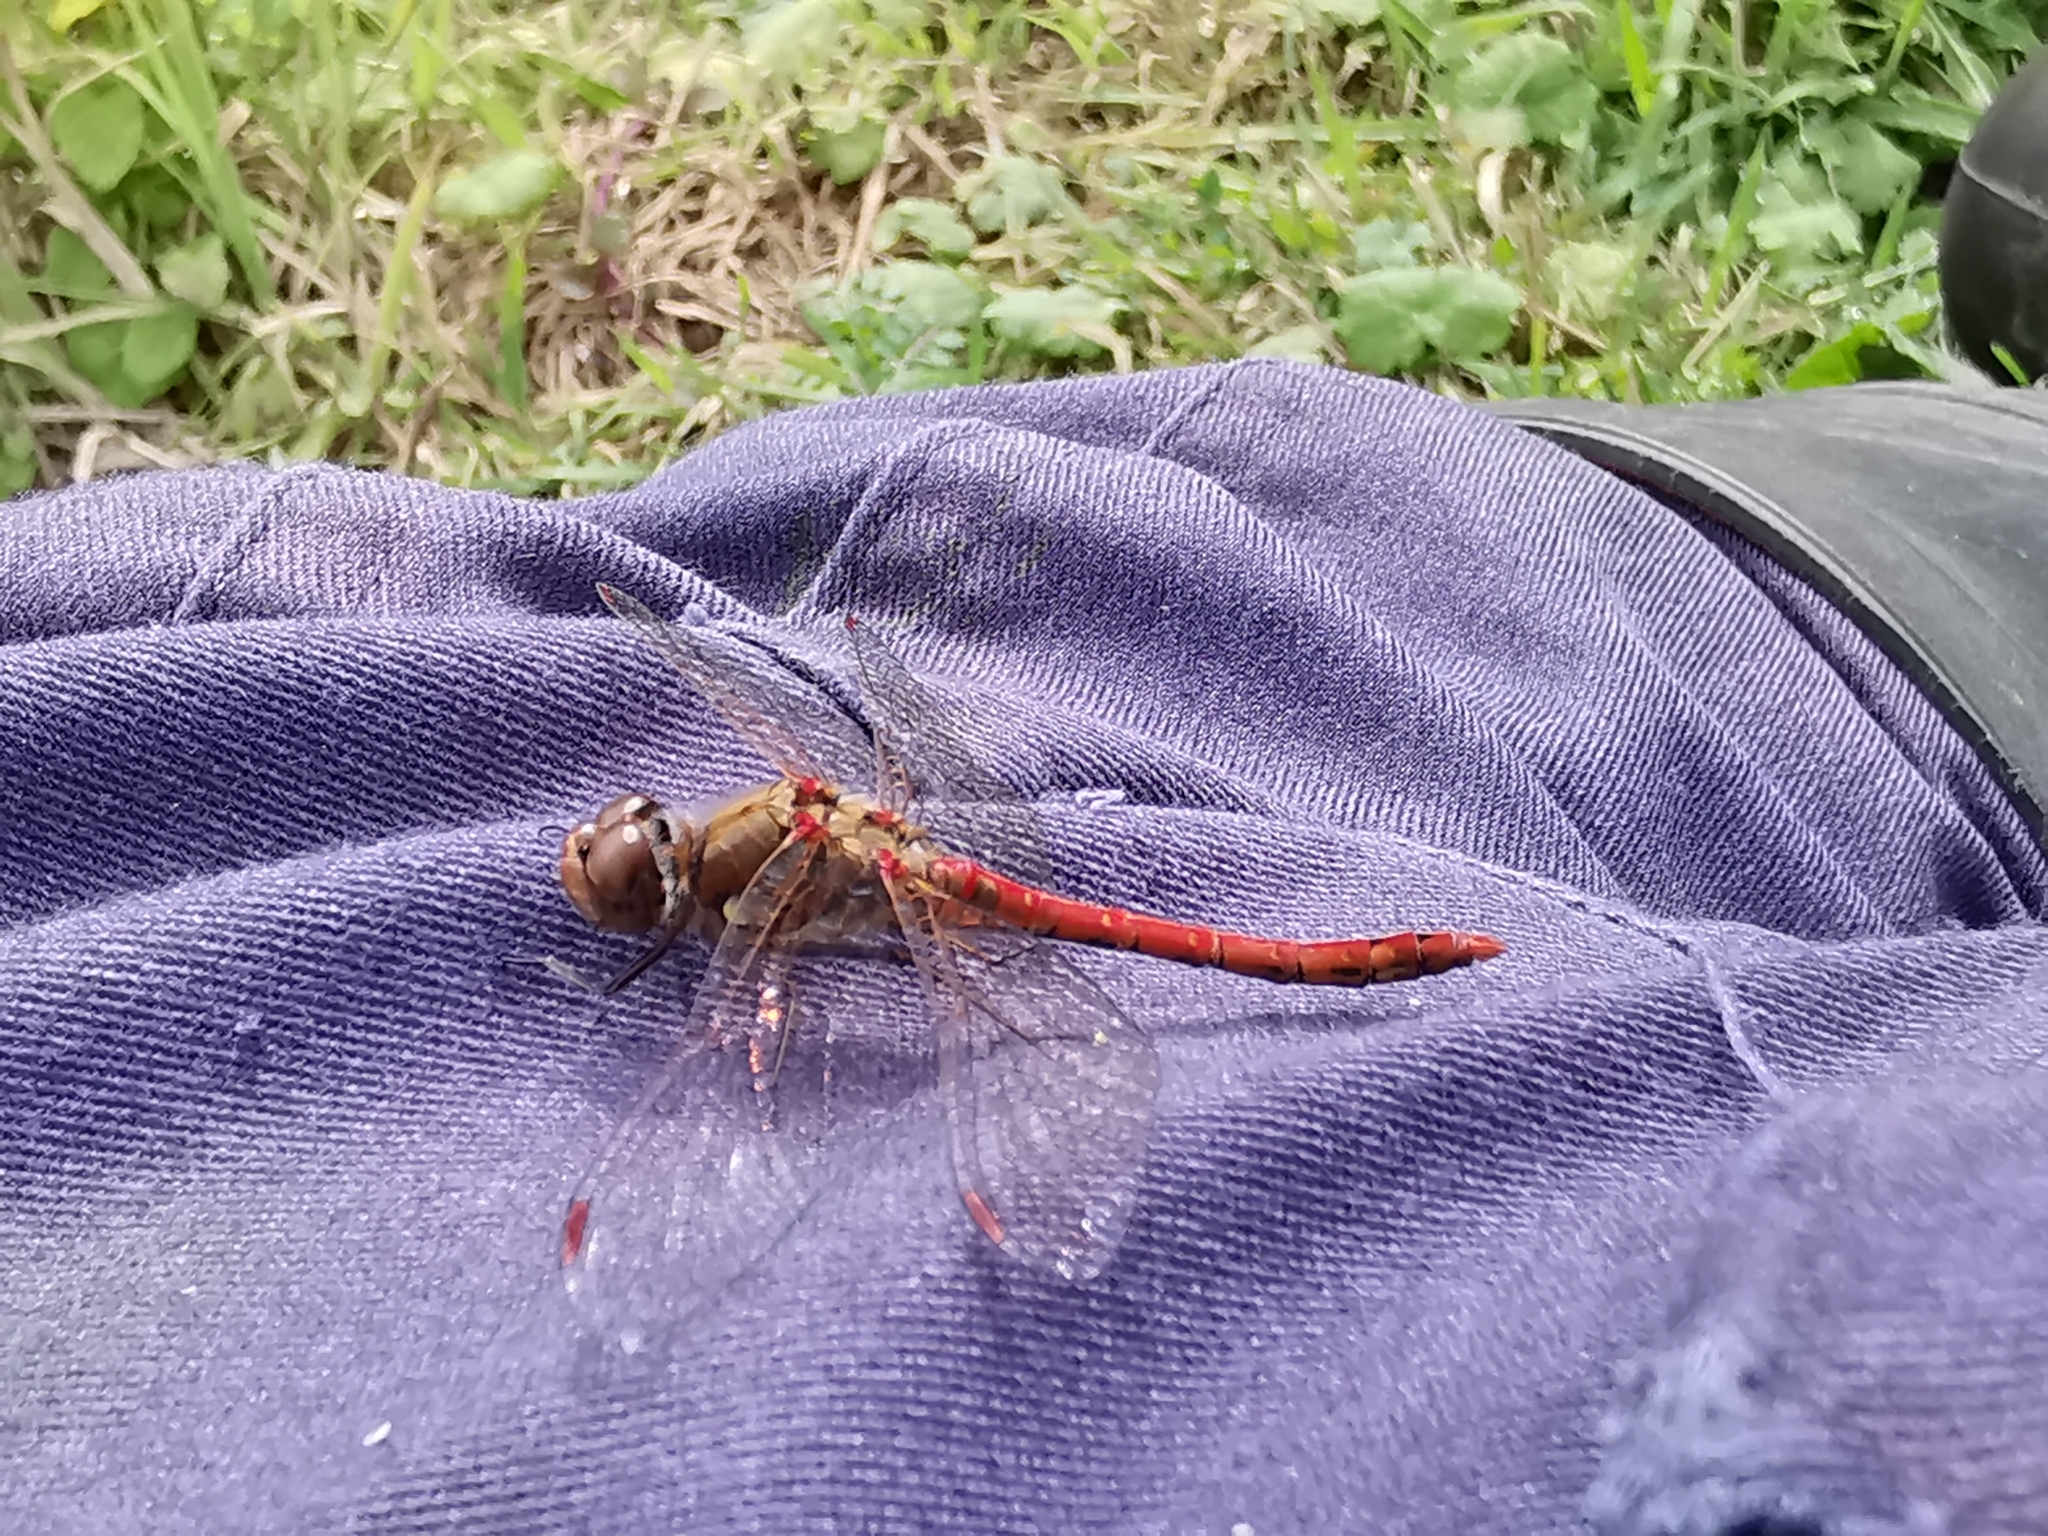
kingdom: Animalia
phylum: Arthropoda
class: Insecta
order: Odonata
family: Libellulidae
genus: Sympetrum
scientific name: Sympetrum sanguineum
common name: Ruddy darter
